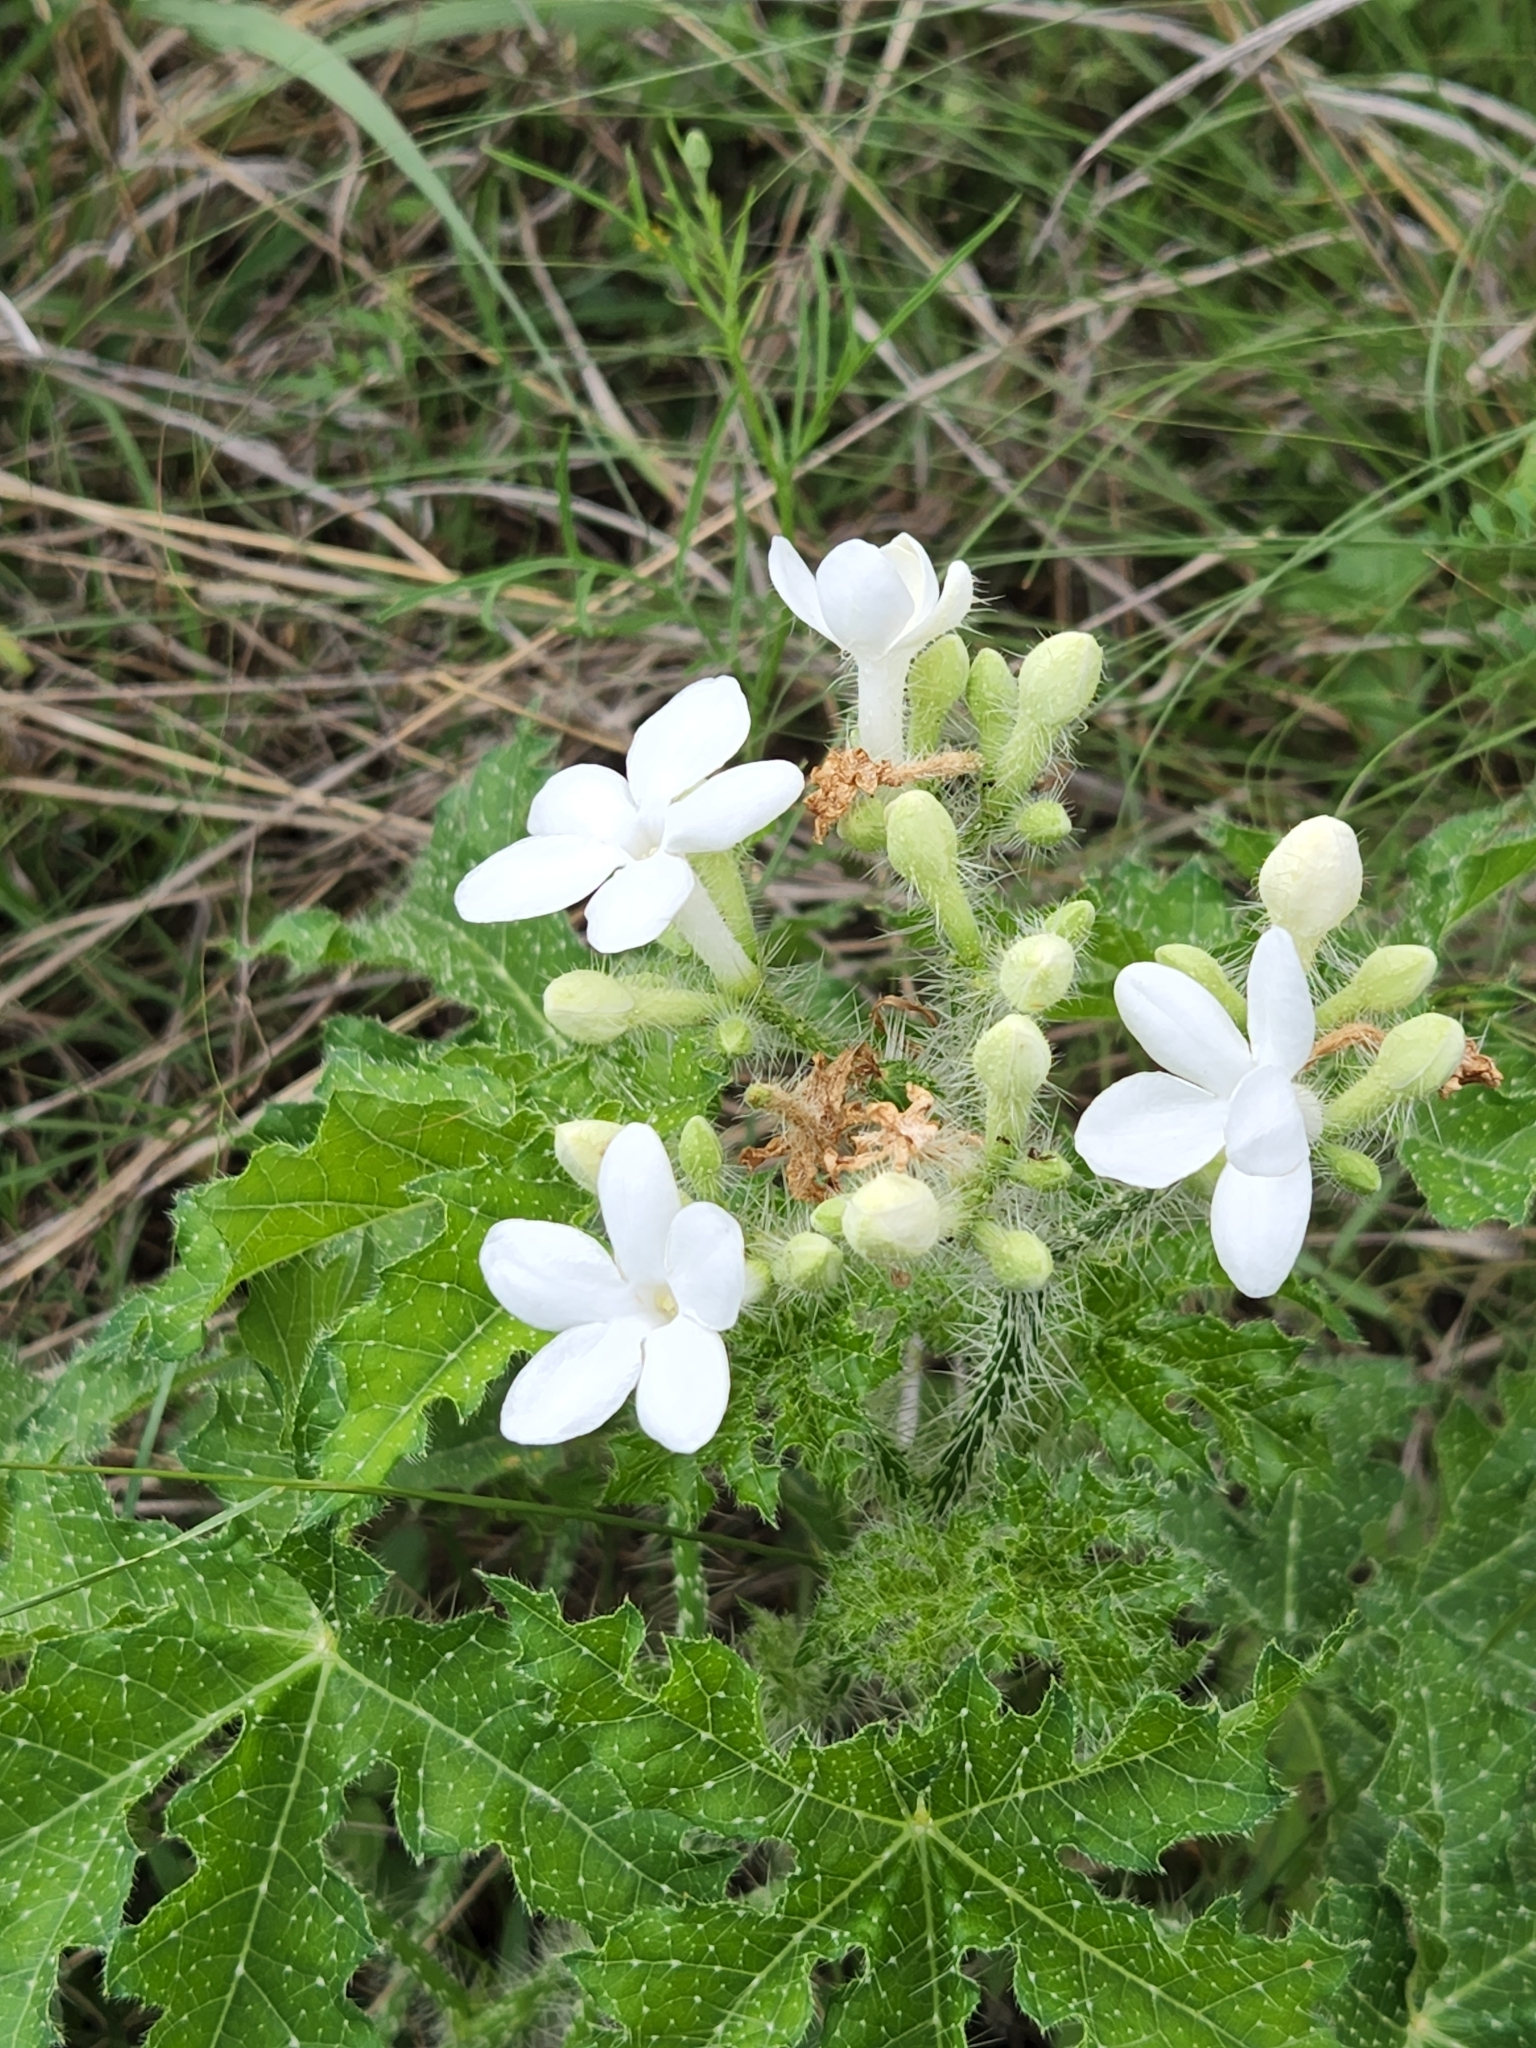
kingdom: Plantae
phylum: Tracheophyta
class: Magnoliopsida
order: Malpighiales
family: Euphorbiaceae
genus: Cnidoscolus
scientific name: Cnidoscolus texanus
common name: Texas bull-nettle
